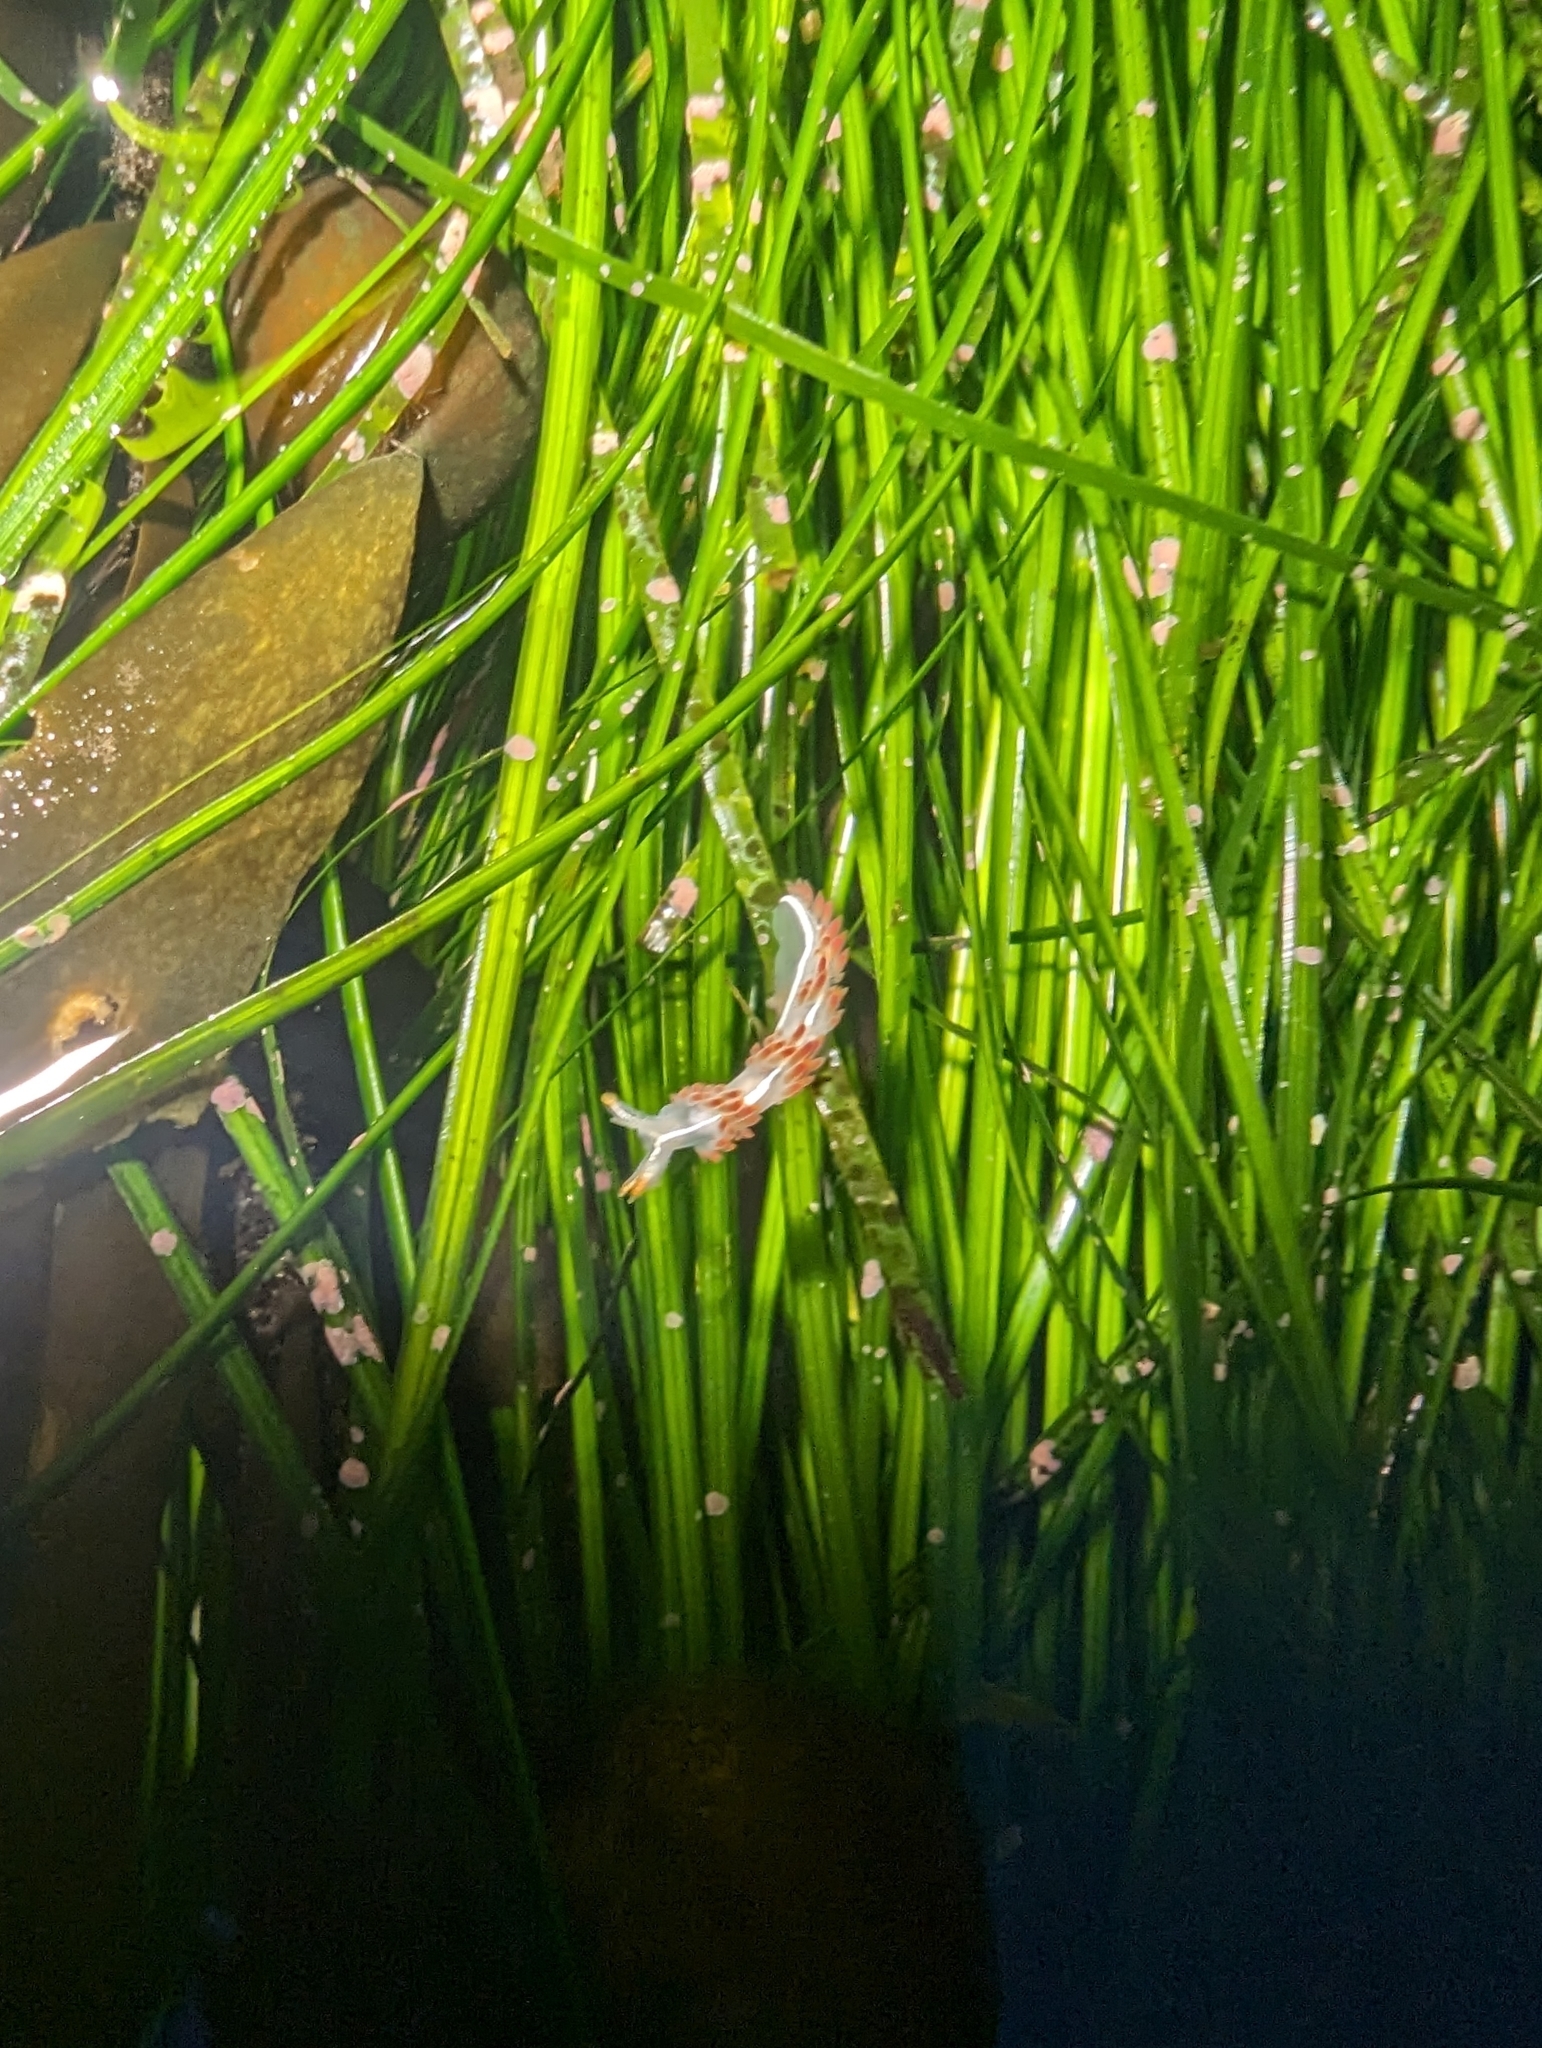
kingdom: Animalia
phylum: Mollusca
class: Gastropoda
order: Nudibranchia
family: Coryphellidae
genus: Coryphella
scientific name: Coryphella trilineata
